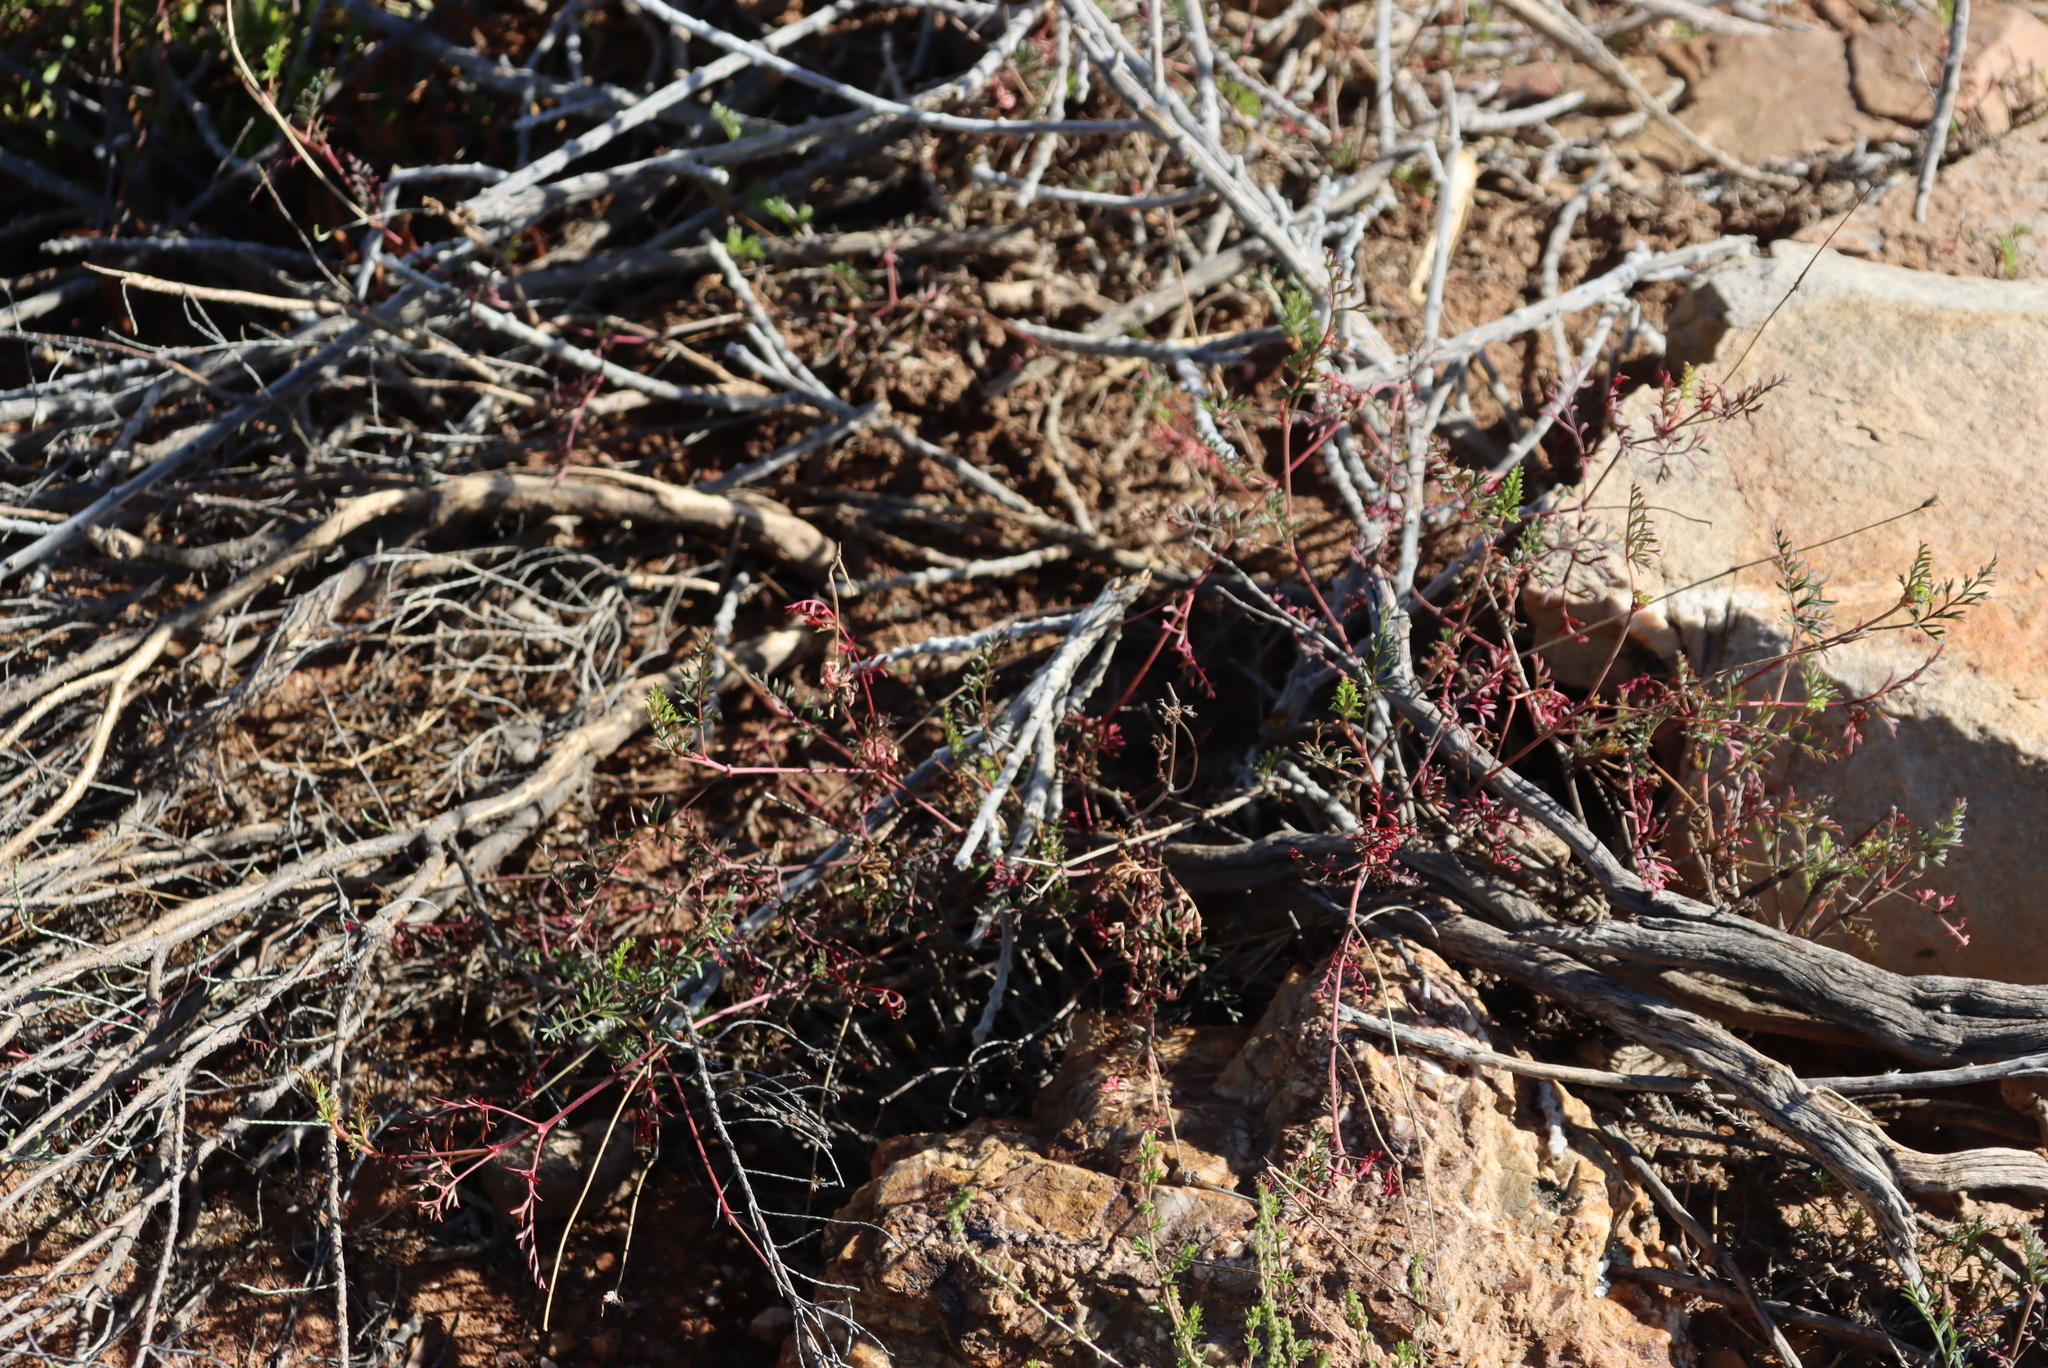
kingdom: Plantae
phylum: Tracheophyta
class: Magnoliopsida
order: Geraniales
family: Geraniaceae
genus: Pelargonium
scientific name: Pelargonium caucalifolium
